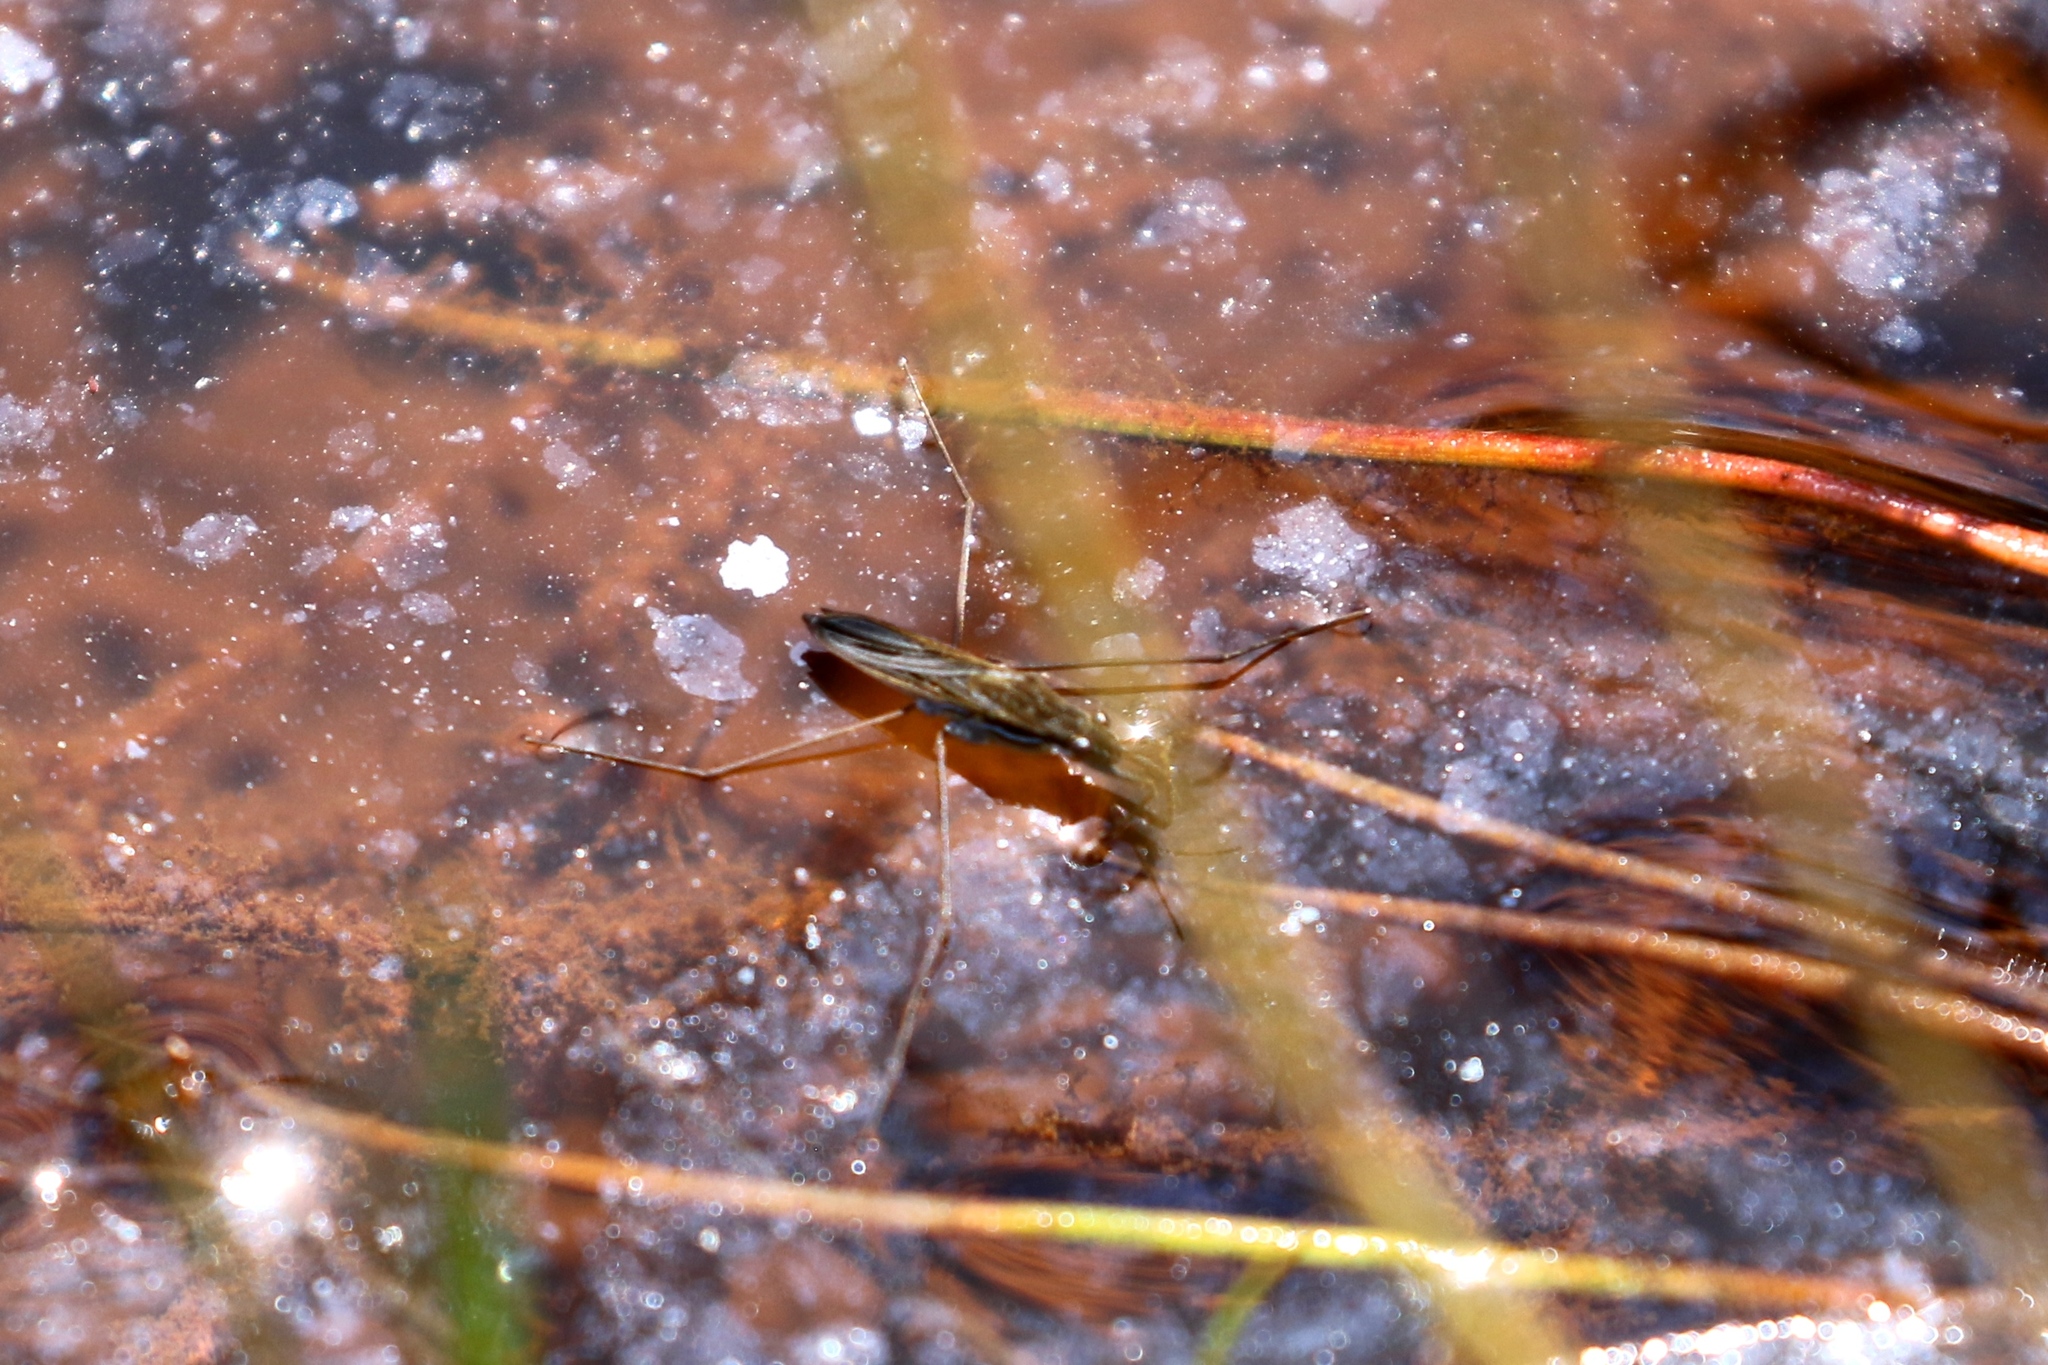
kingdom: Animalia
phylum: Arthropoda
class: Insecta
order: Hemiptera
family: Gerridae
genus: Gerris
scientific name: Gerris
